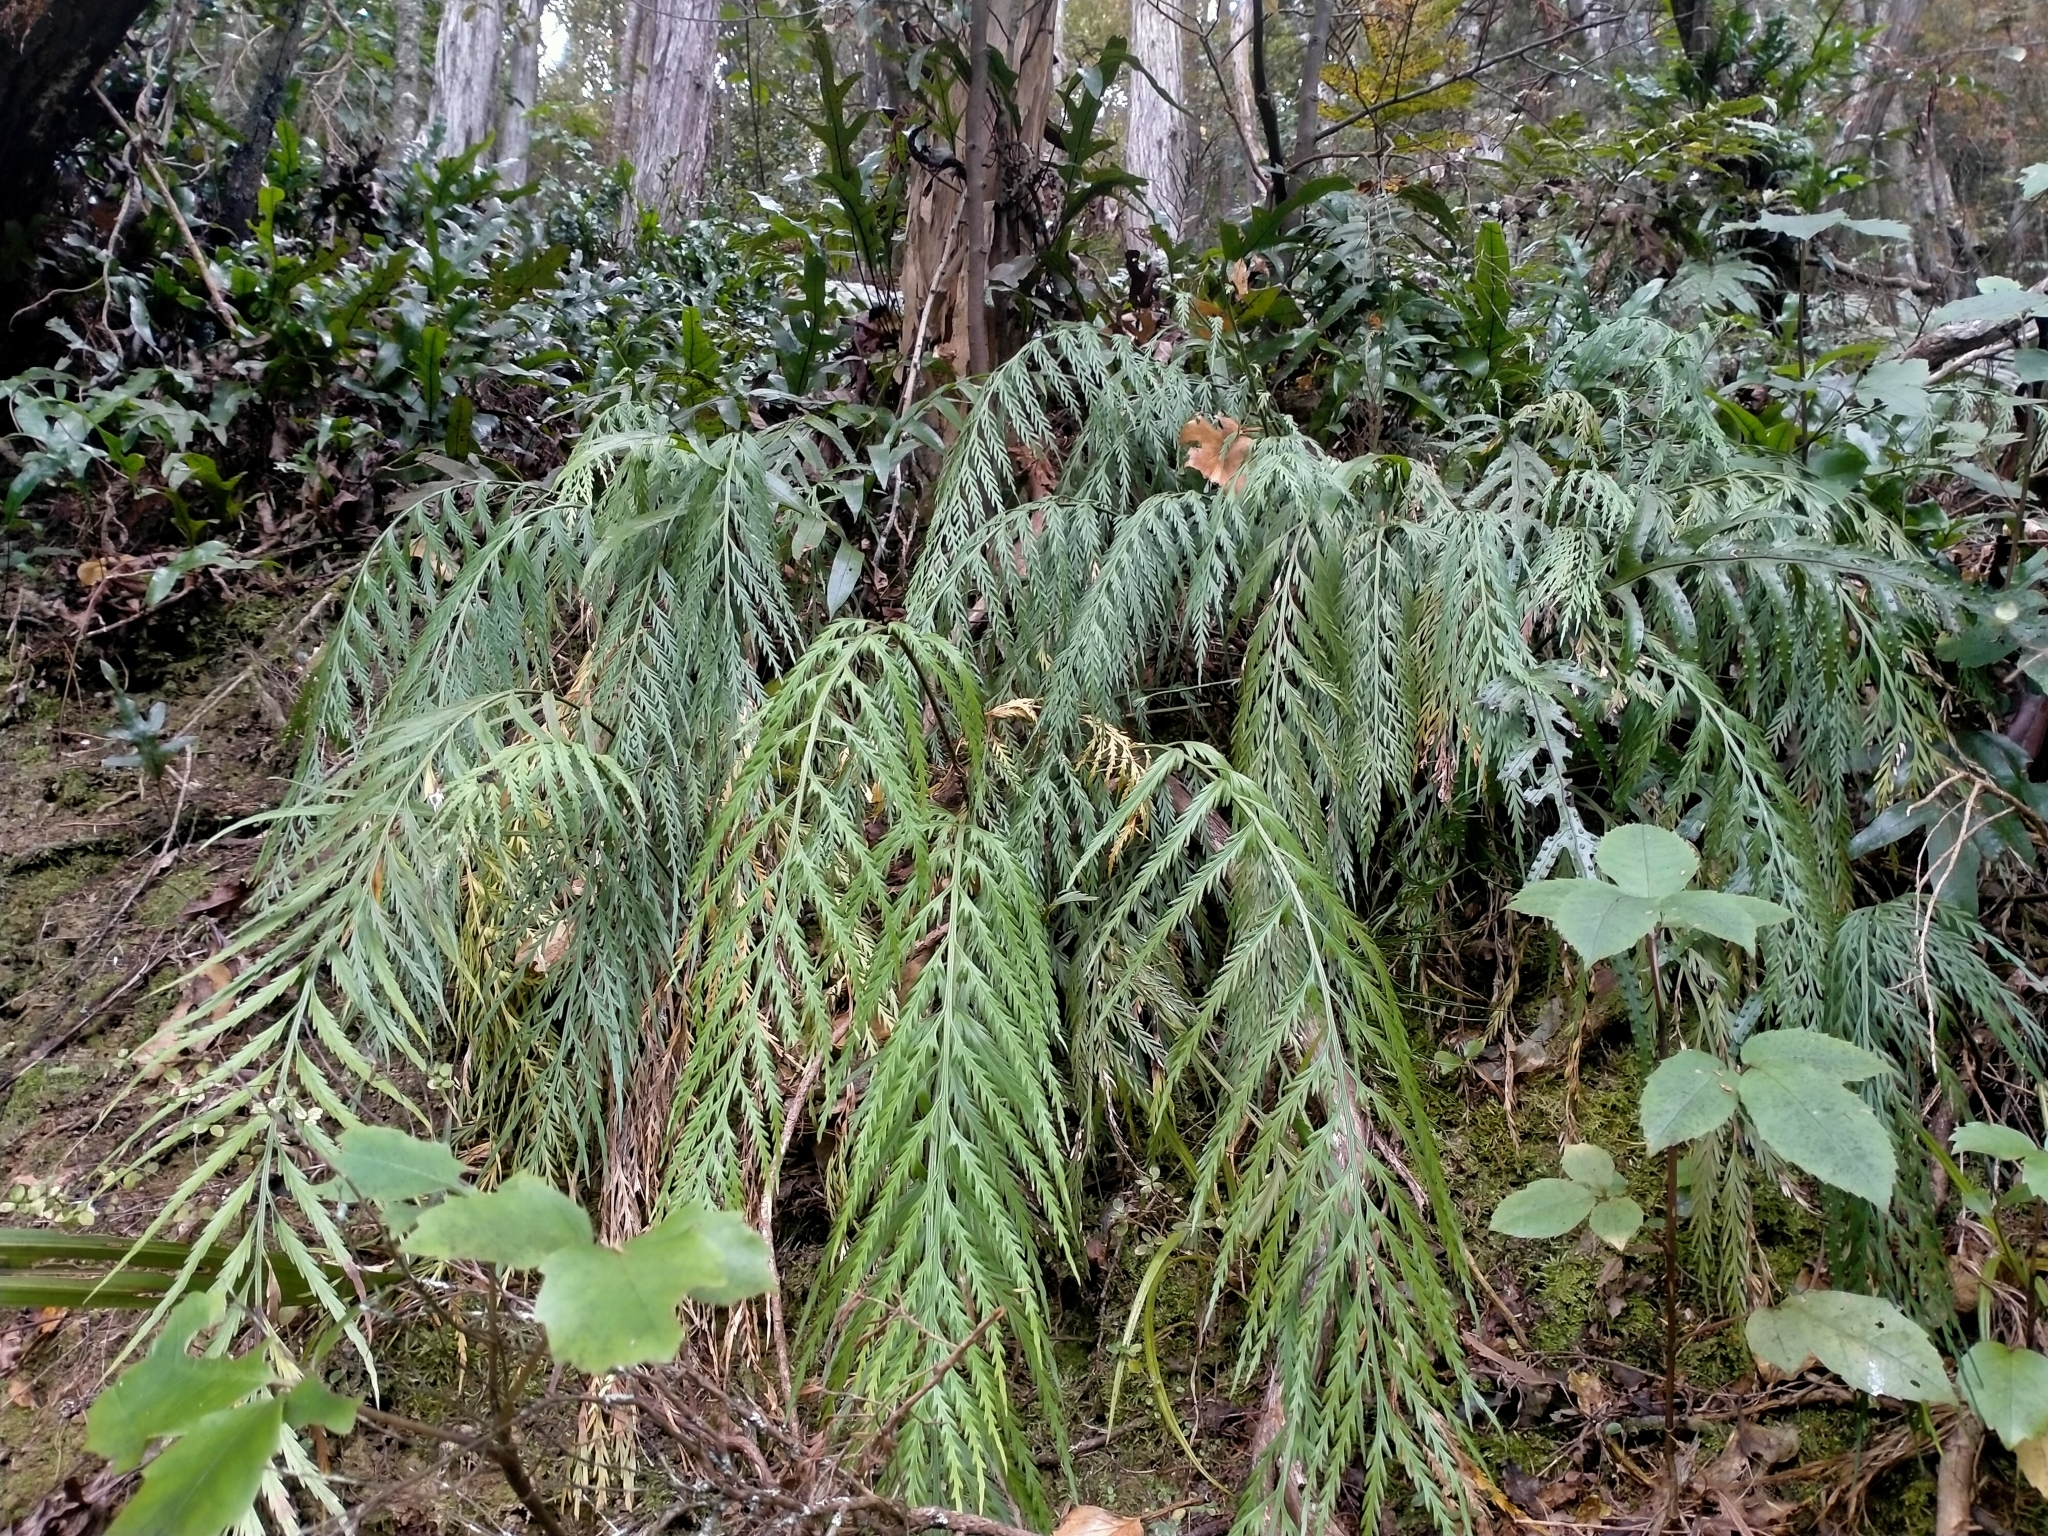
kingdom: Plantae
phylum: Tracheophyta
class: Polypodiopsida
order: Polypodiales
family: Aspleniaceae
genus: Asplenium
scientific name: Asplenium flaccidum
